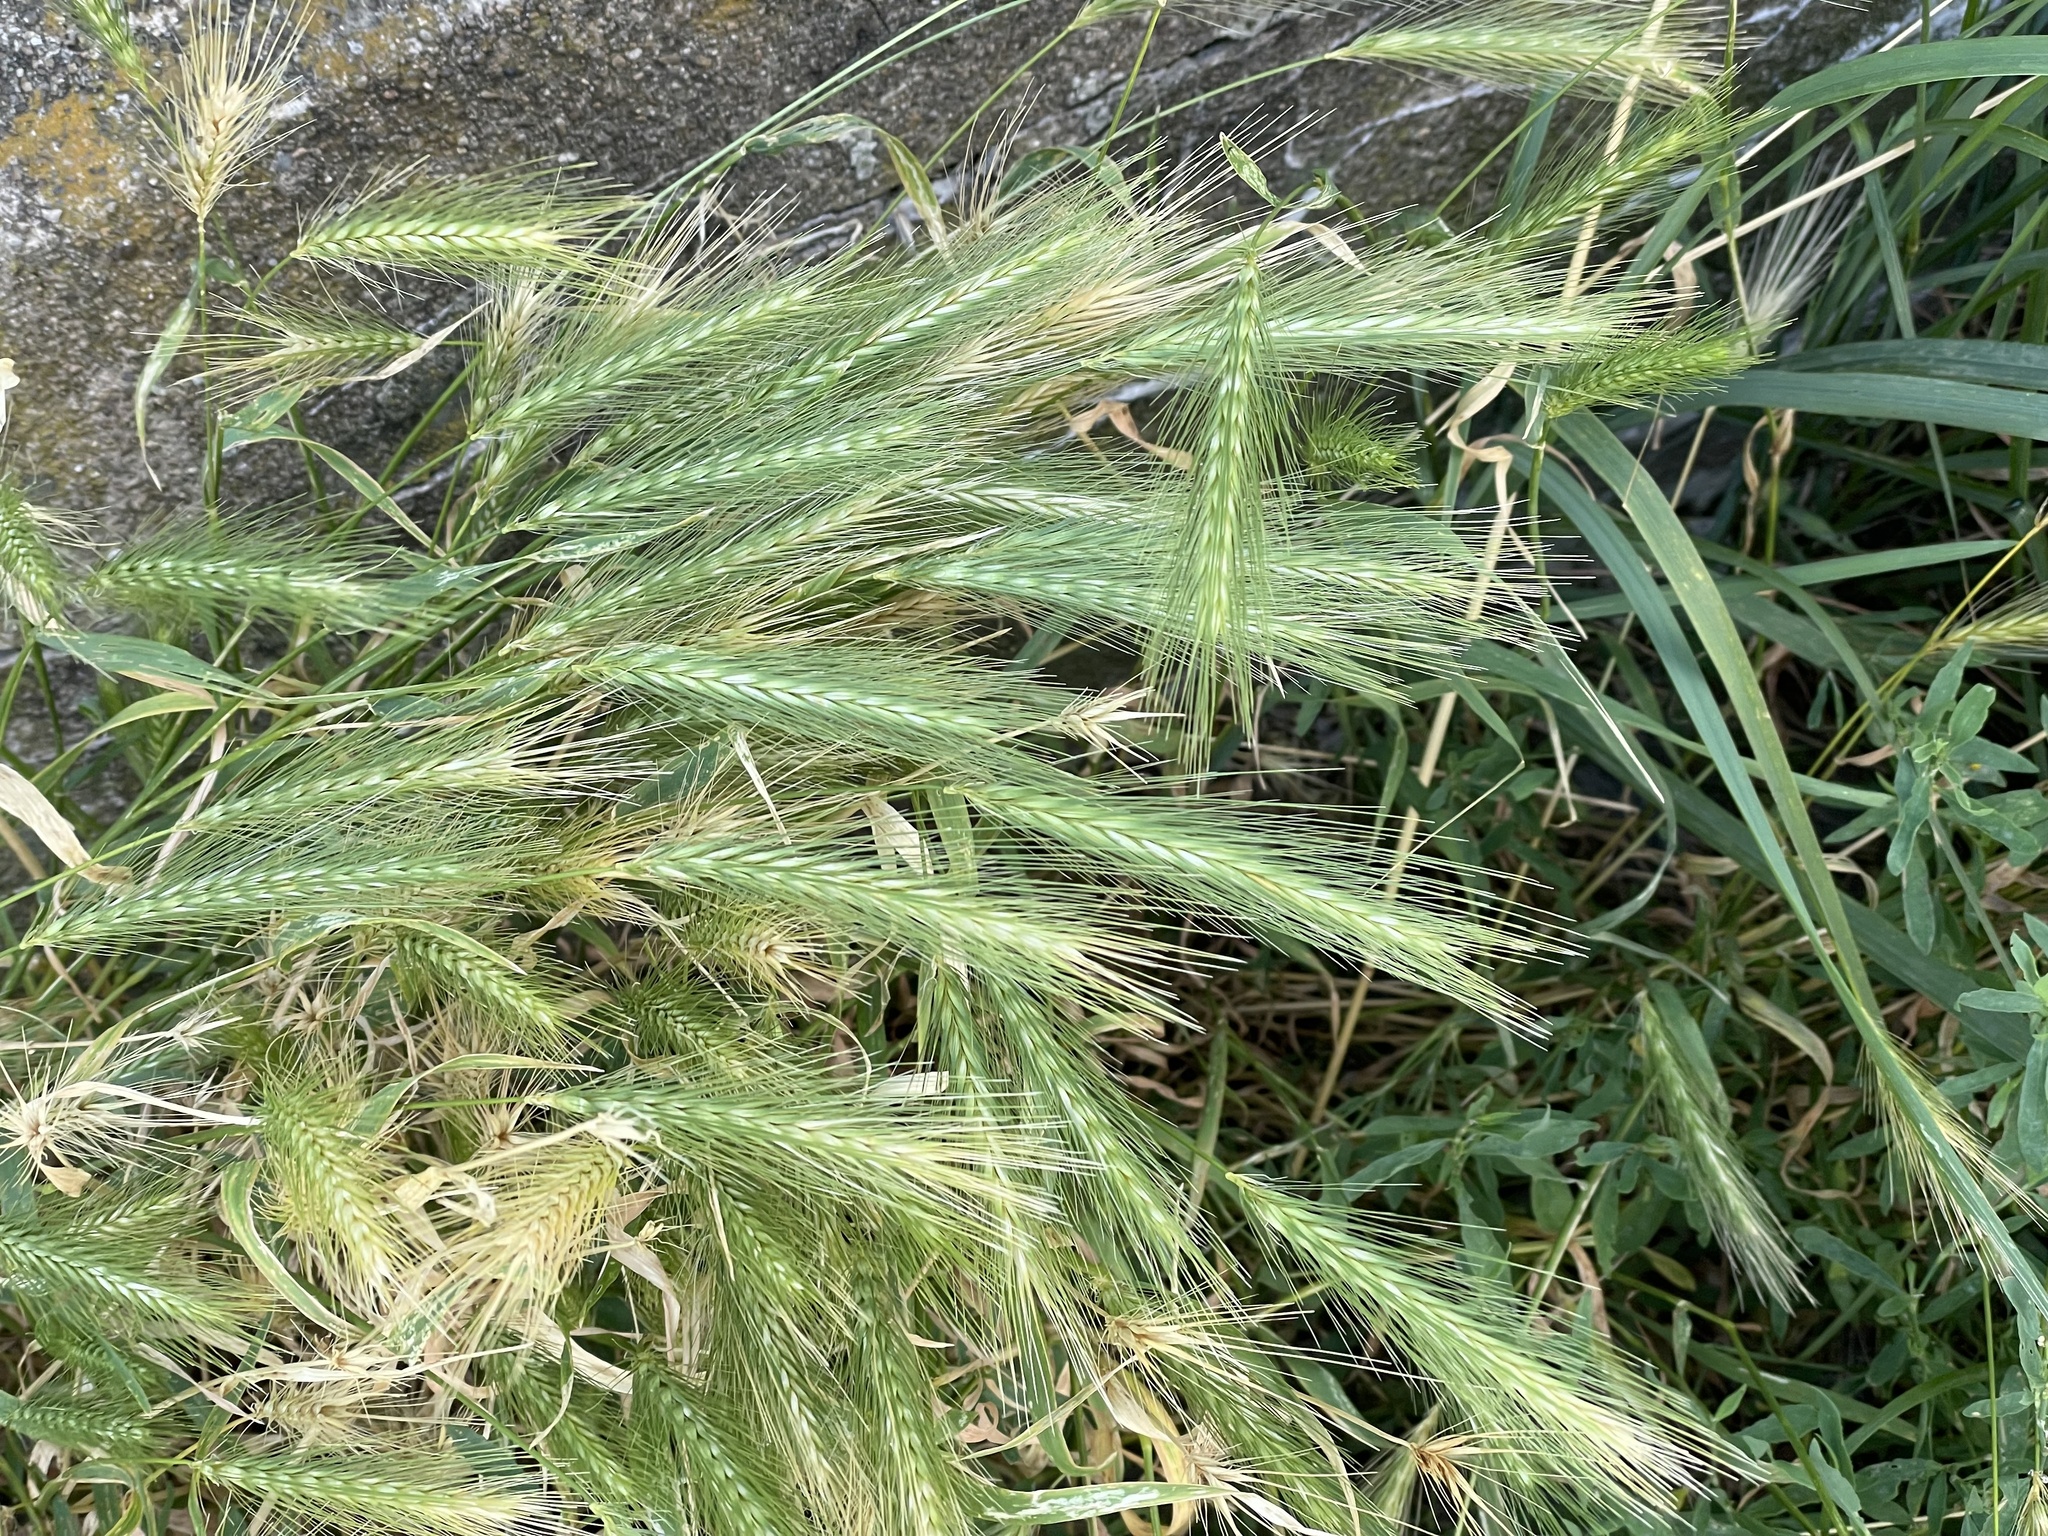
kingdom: Plantae
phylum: Tracheophyta
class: Liliopsida
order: Poales
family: Poaceae
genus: Hordeum
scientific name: Hordeum murinum
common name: Wall barley
